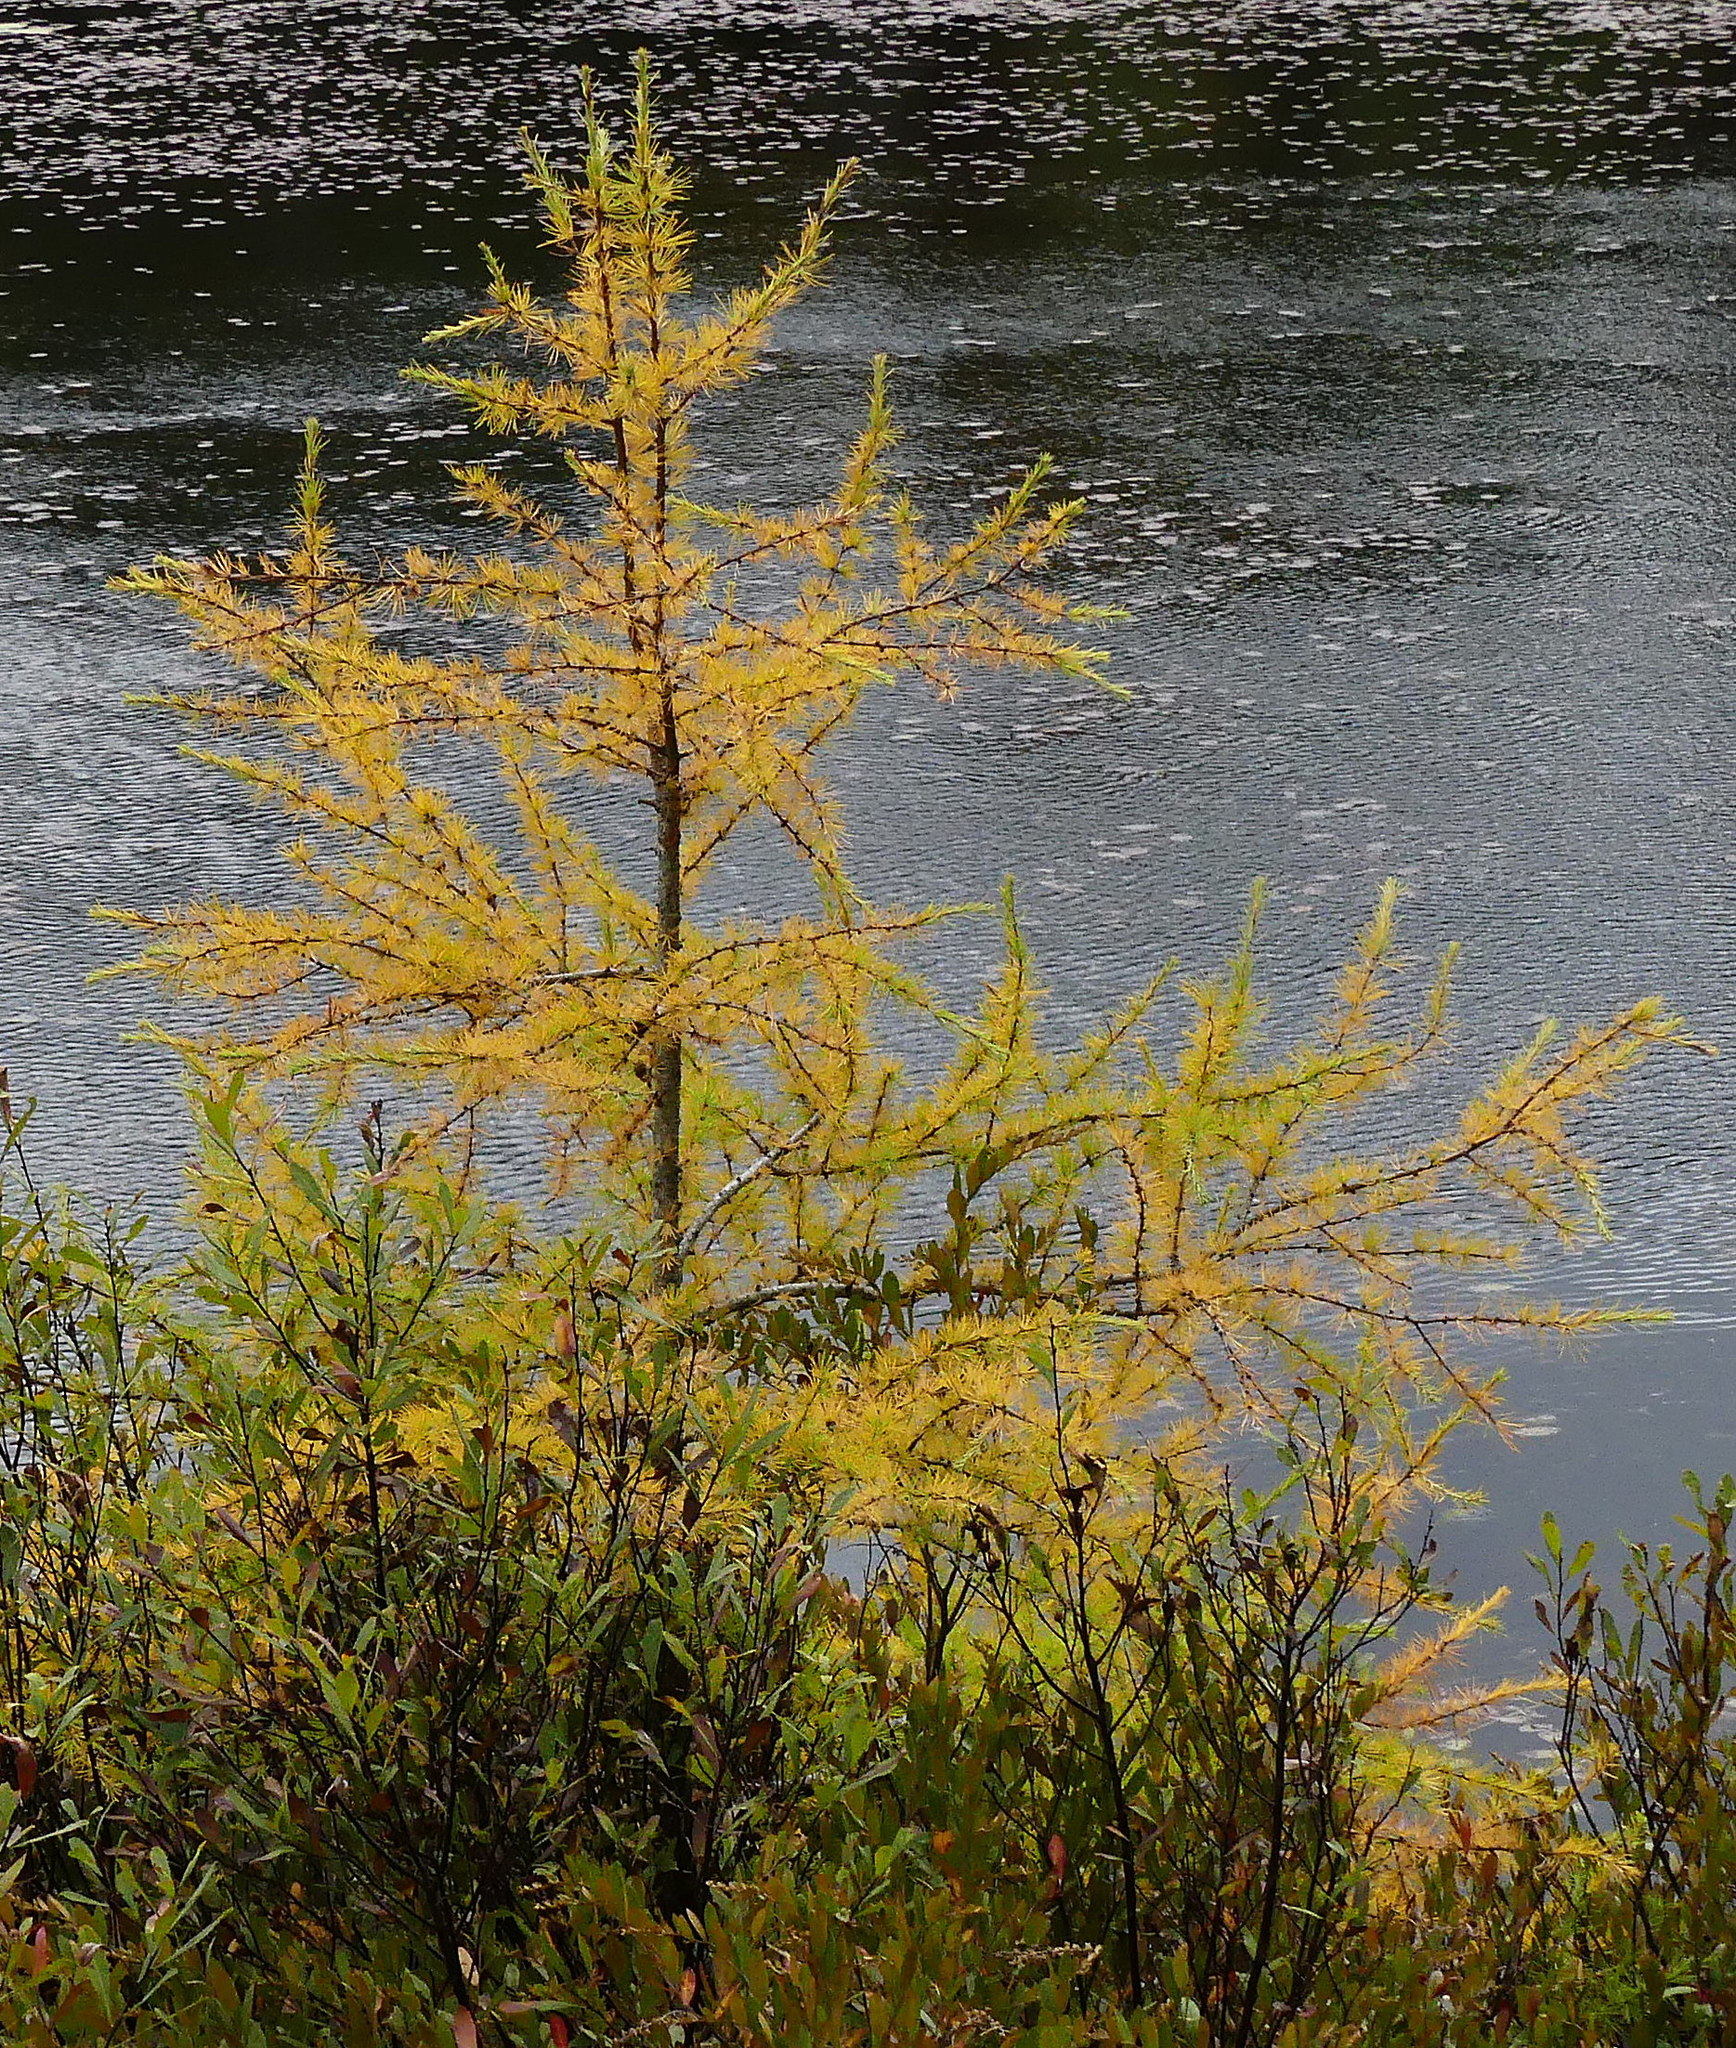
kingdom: Plantae
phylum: Tracheophyta
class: Pinopsida
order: Pinales
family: Pinaceae
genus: Larix
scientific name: Larix laricina
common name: American larch
